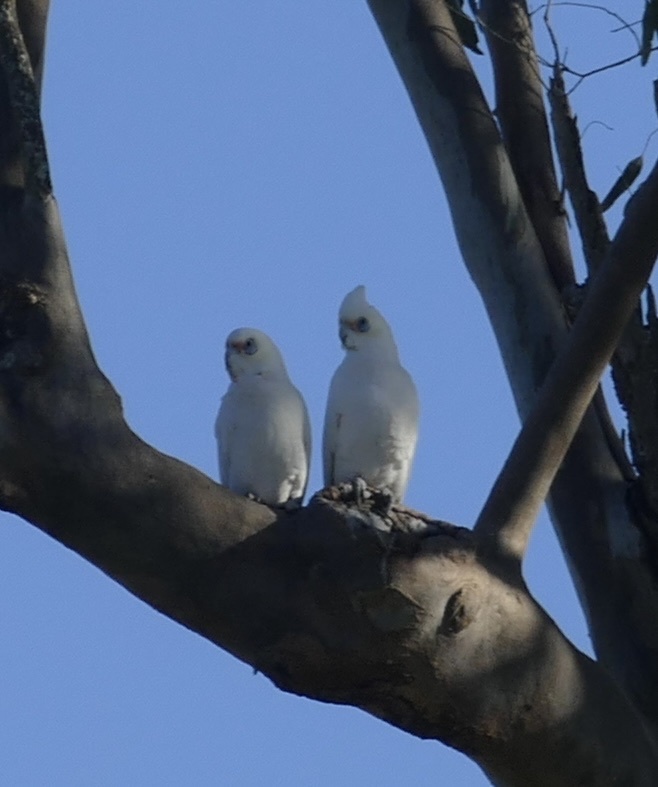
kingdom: Animalia
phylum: Chordata
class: Aves
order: Psittaciformes
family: Psittacidae
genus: Cacatua
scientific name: Cacatua sanguinea
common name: Little corella
